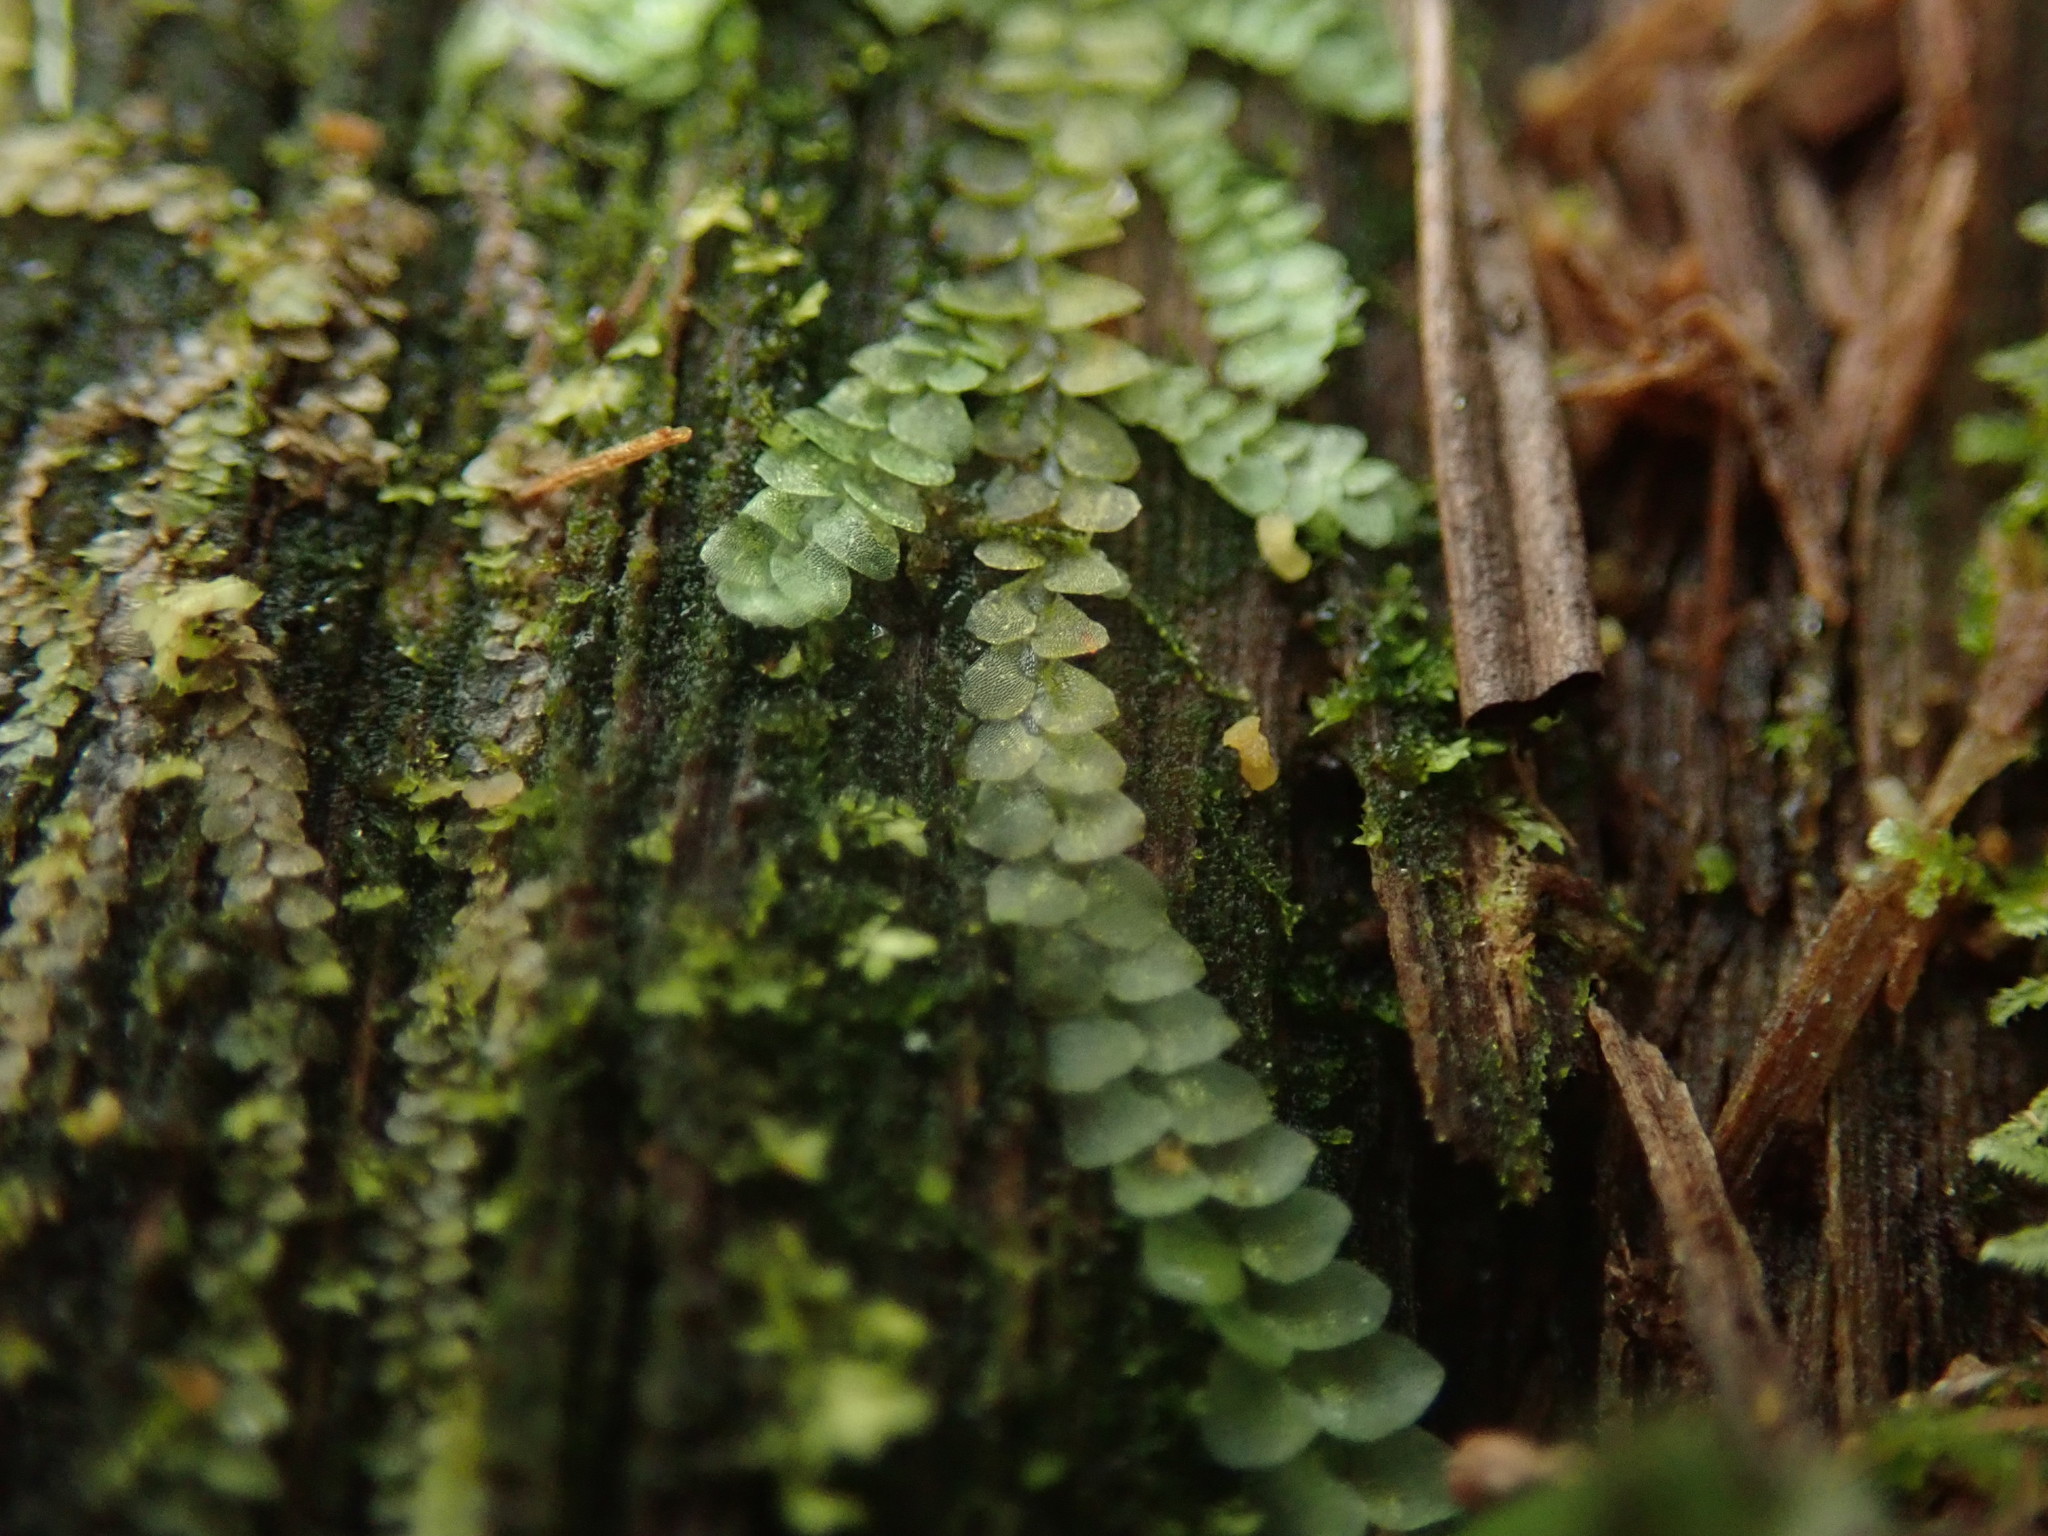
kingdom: Plantae
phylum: Marchantiophyta
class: Jungermanniopsida
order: Jungermanniales
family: Calypogeiaceae
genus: Calypogeia
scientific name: Calypogeia azurea
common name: Blue pouchwort
